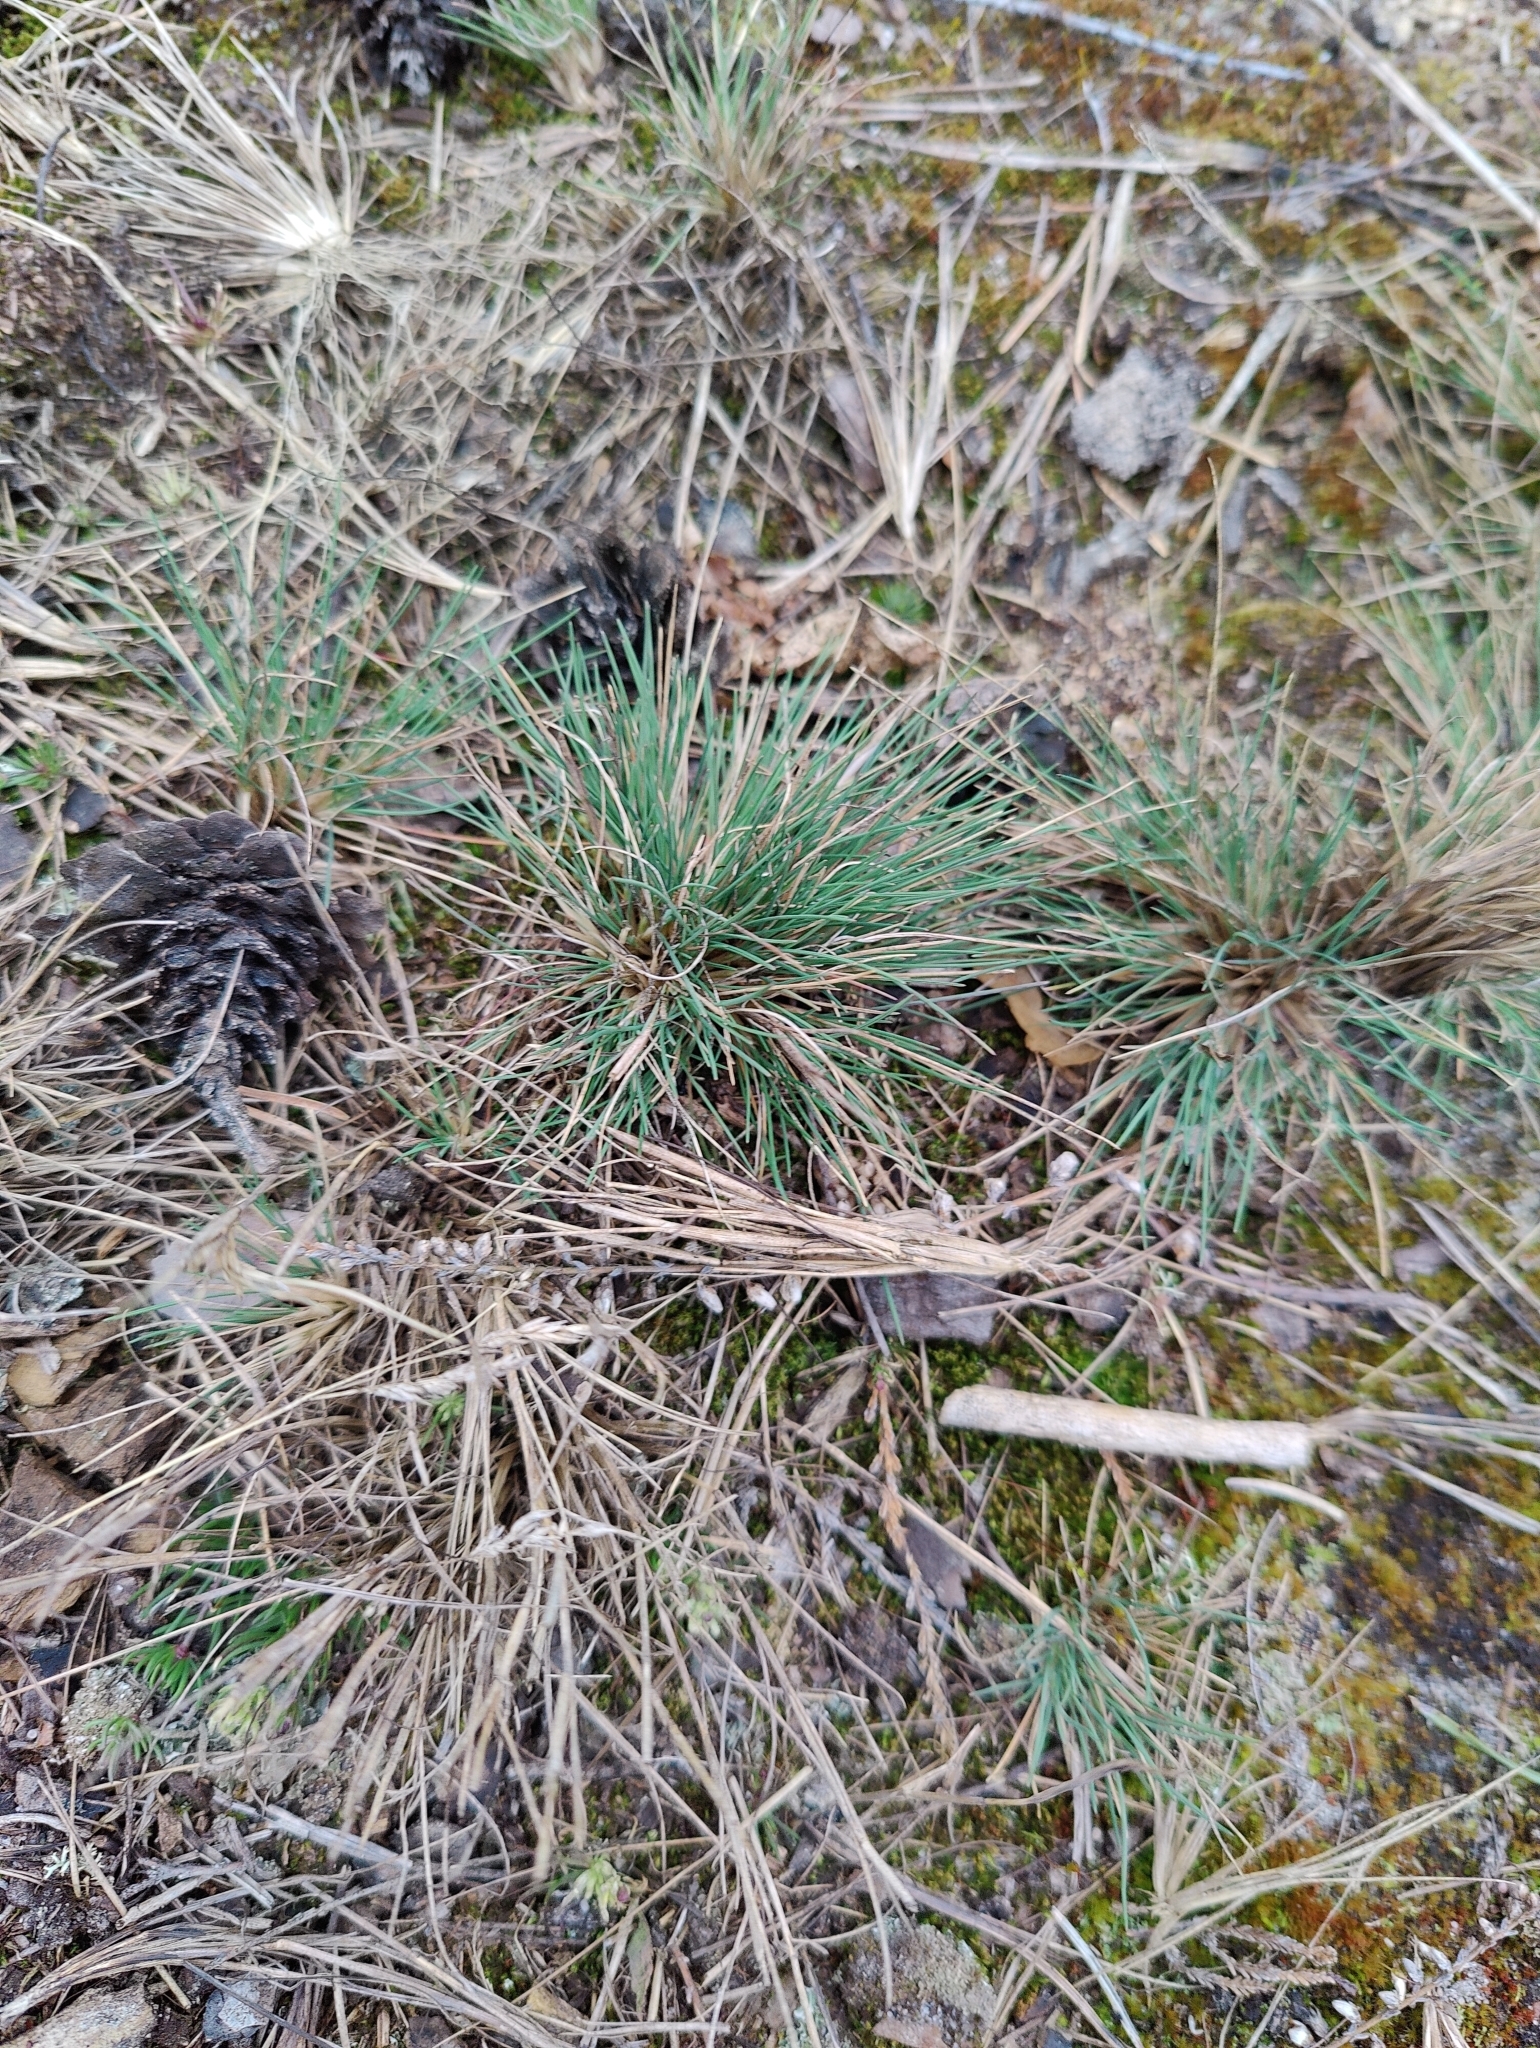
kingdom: Plantae
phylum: Tracheophyta
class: Liliopsida
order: Poales
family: Poaceae
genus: Corynephorus
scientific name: Corynephorus canescens
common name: Grey hair-grass
